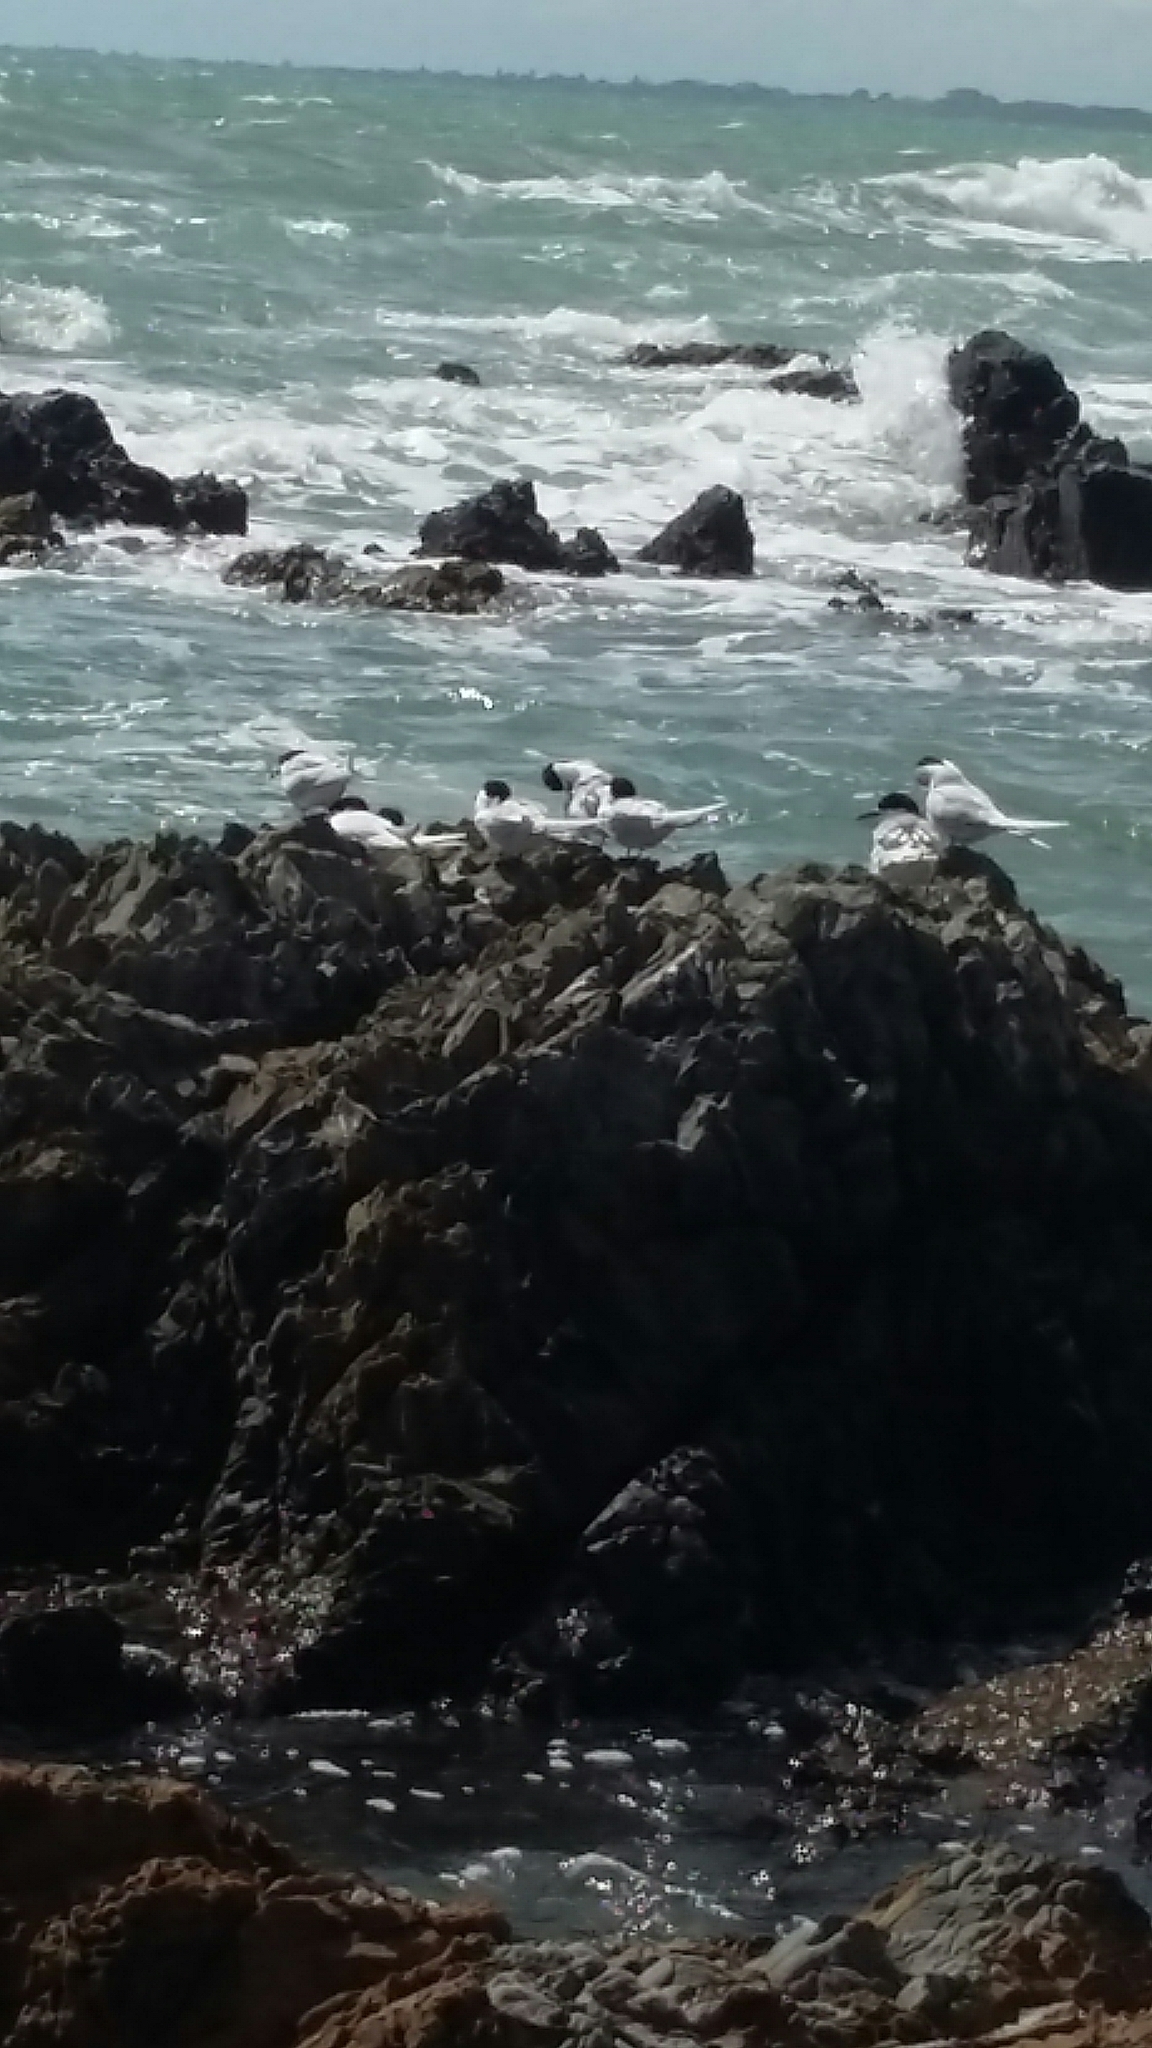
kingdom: Animalia
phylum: Chordata
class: Aves
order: Charadriiformes
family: Laridae
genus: Sterna
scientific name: Sterna striata
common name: White-fronted tern
